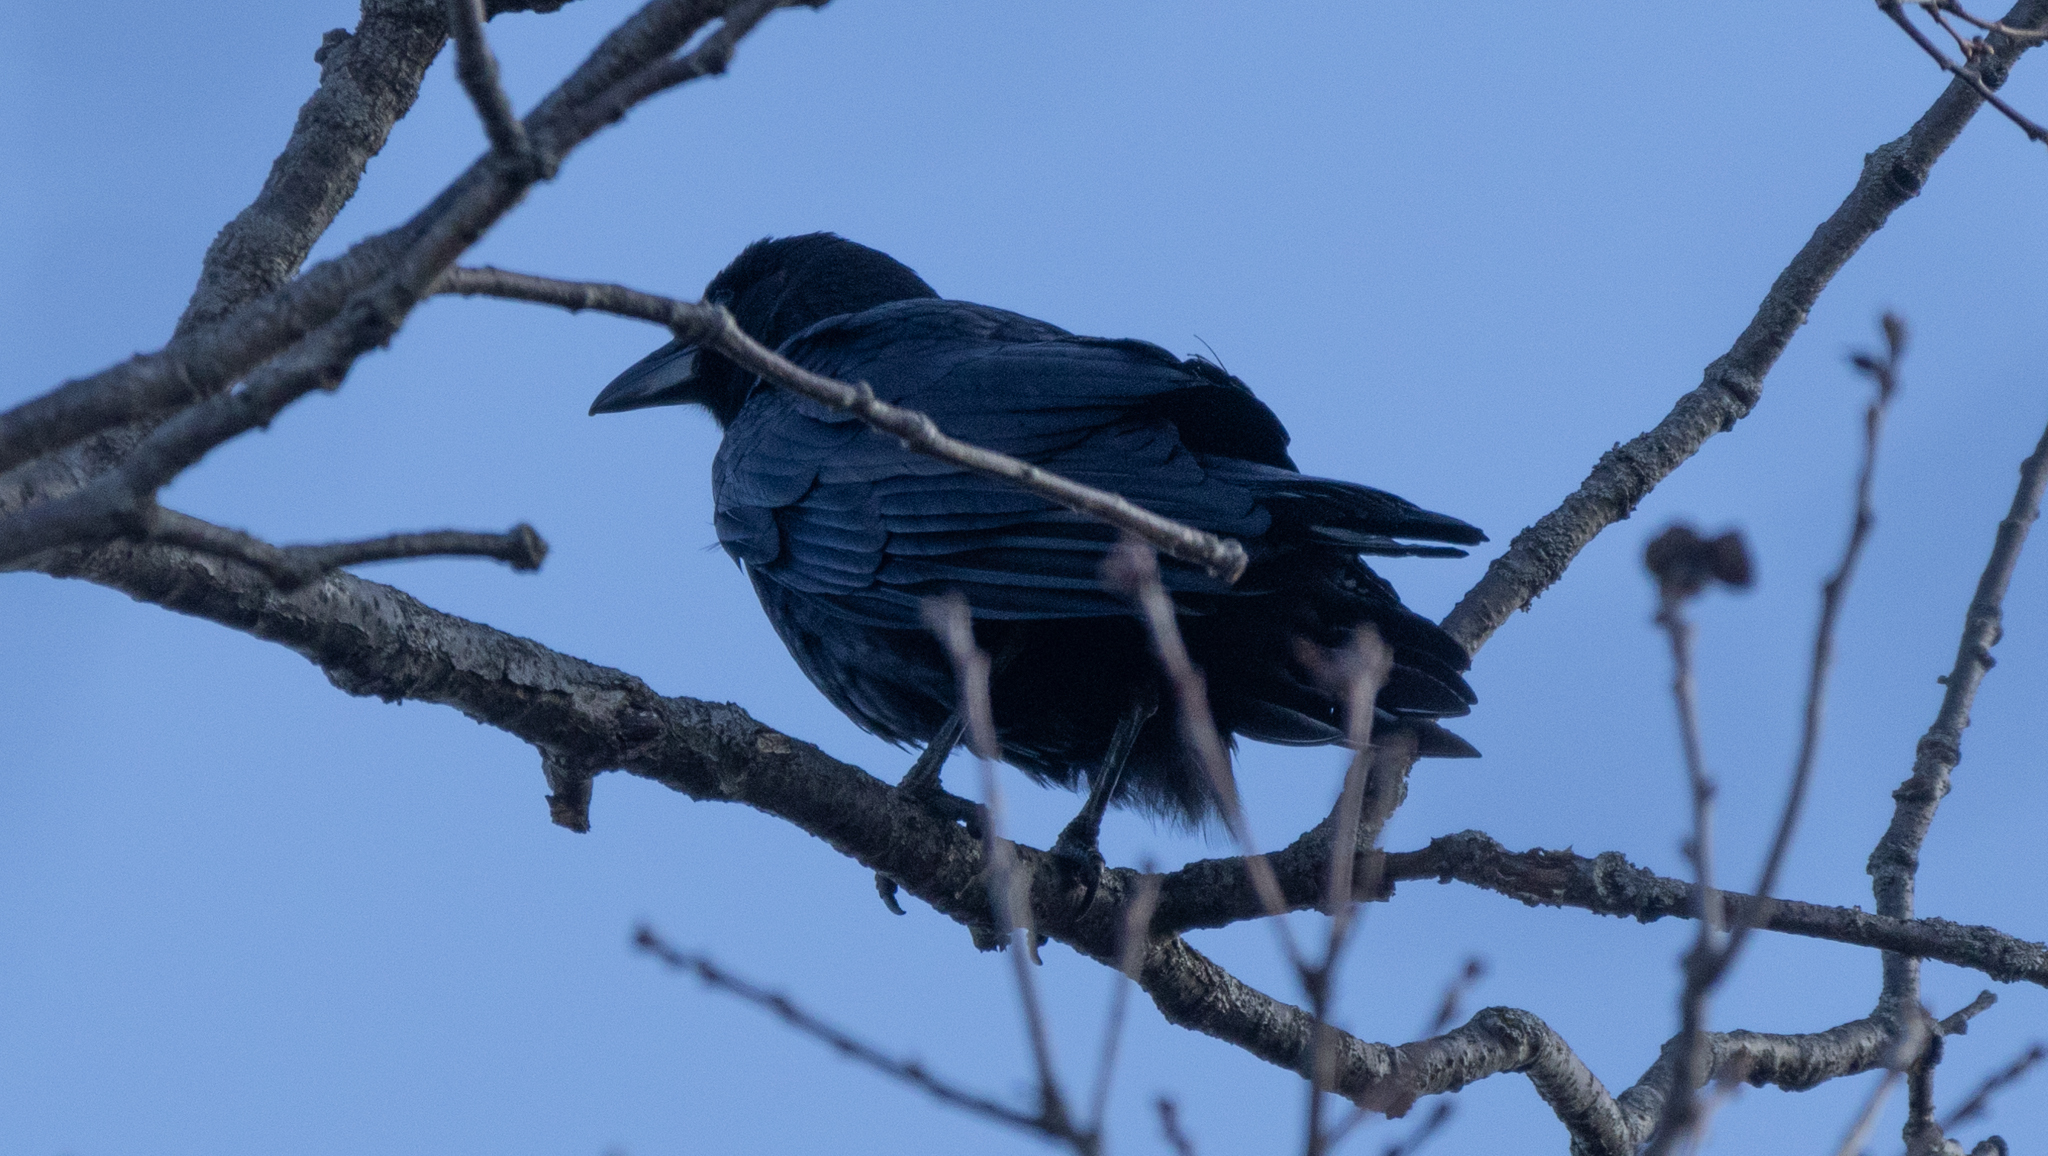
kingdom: Animalia
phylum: Chordata
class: Aves
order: Passeriformes
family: Corvidae
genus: Corvus
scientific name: Corvus brachyrhynchos
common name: American crow
